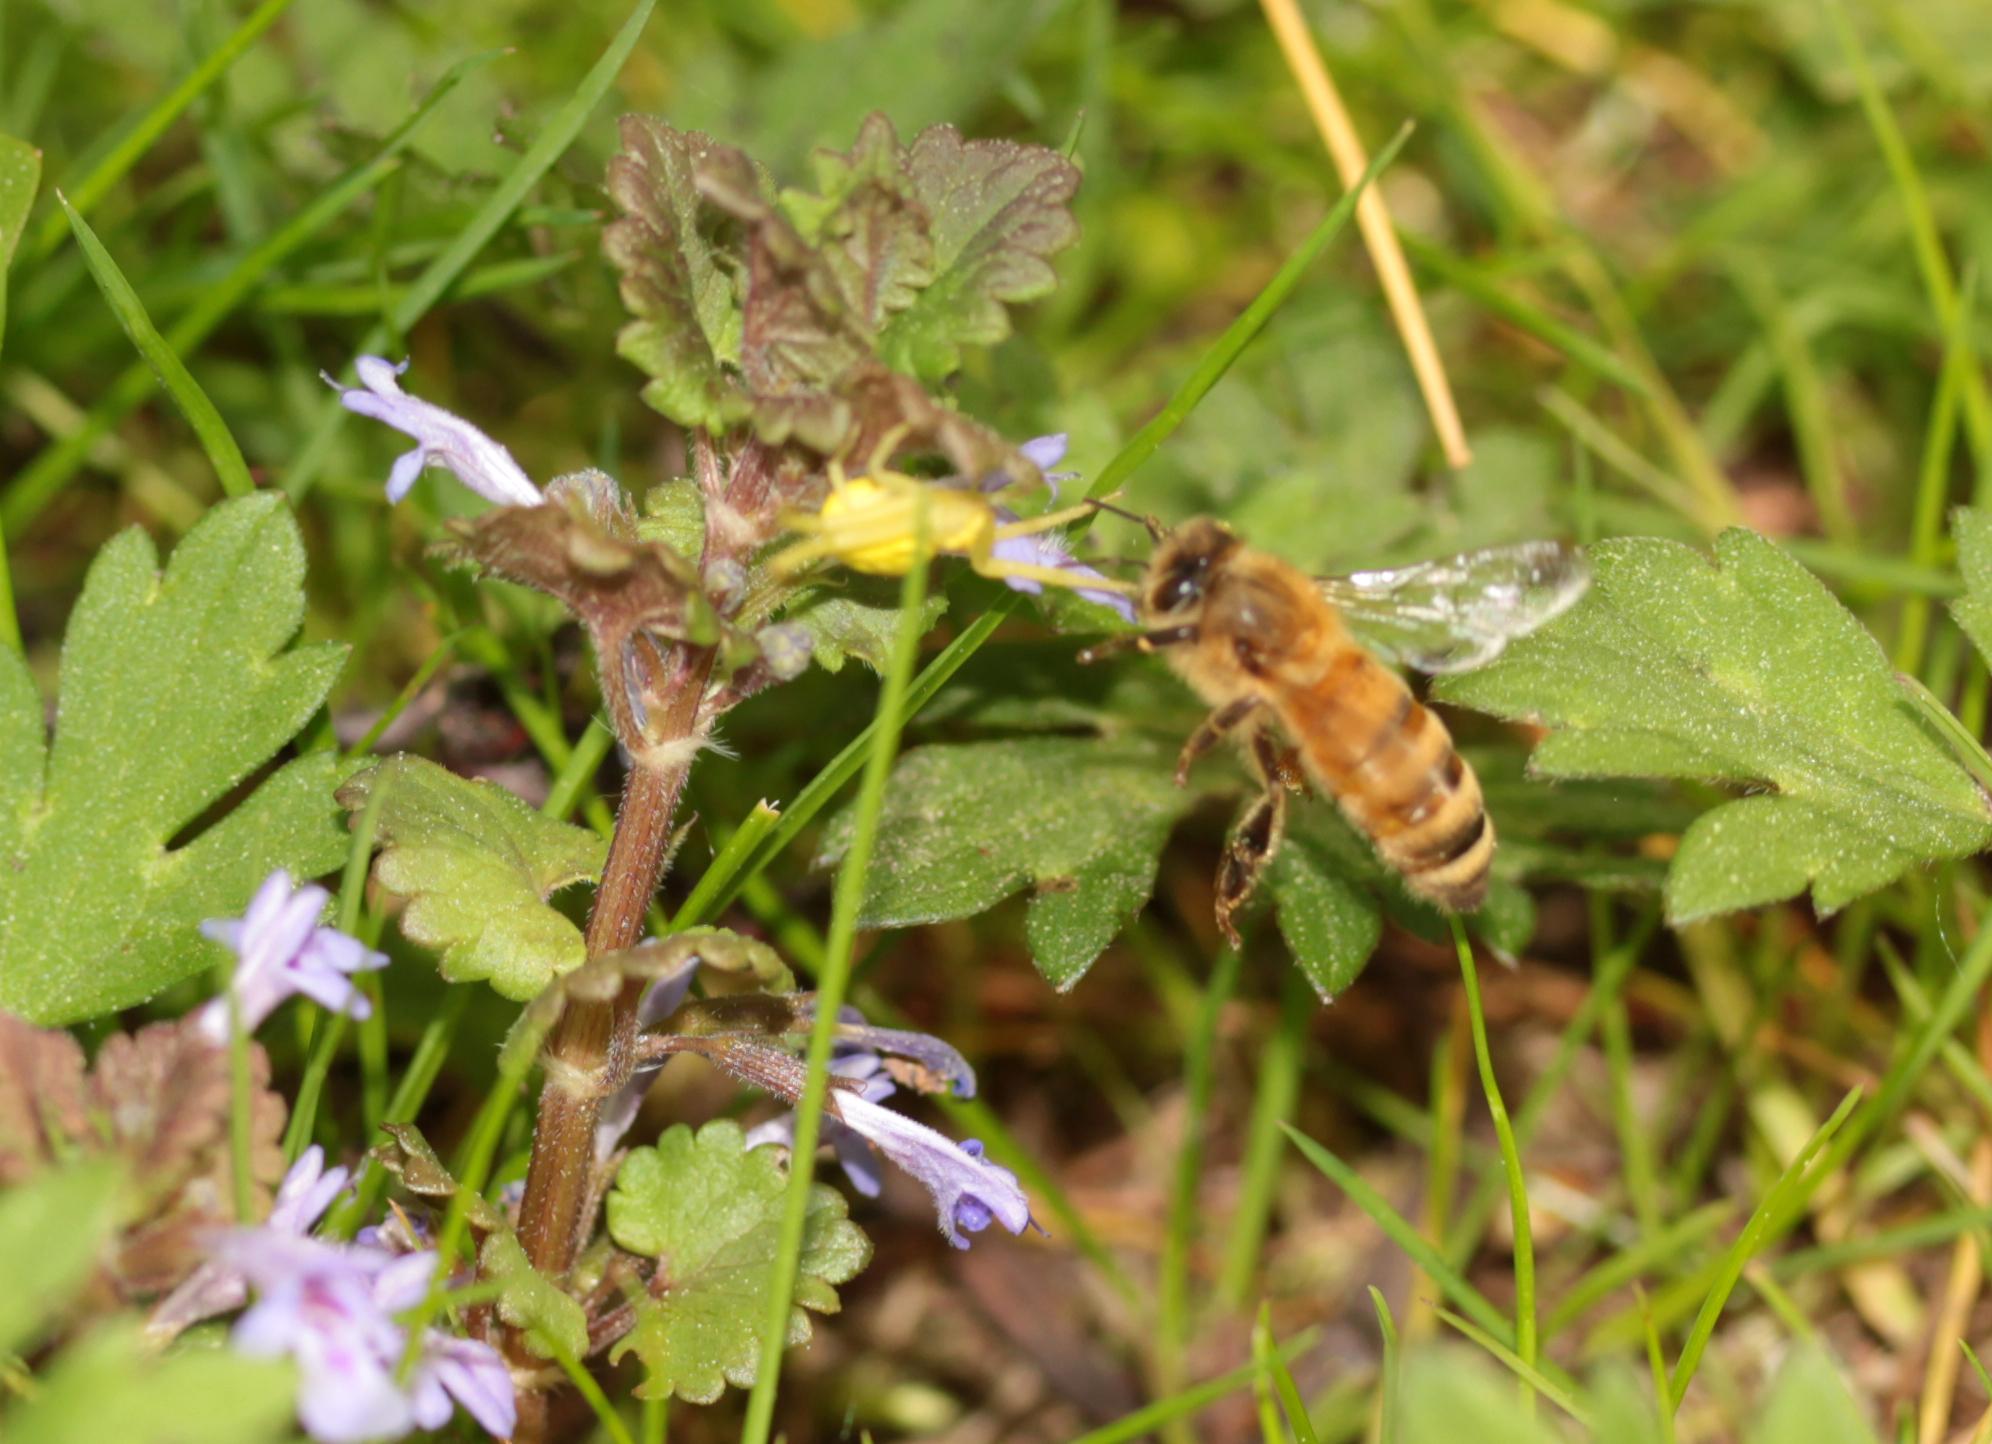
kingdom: Animalia
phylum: Arthropoda
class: Insecta
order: Hymenoptera
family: Apidae
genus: Apis
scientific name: Apis mellifera
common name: Honey bee
